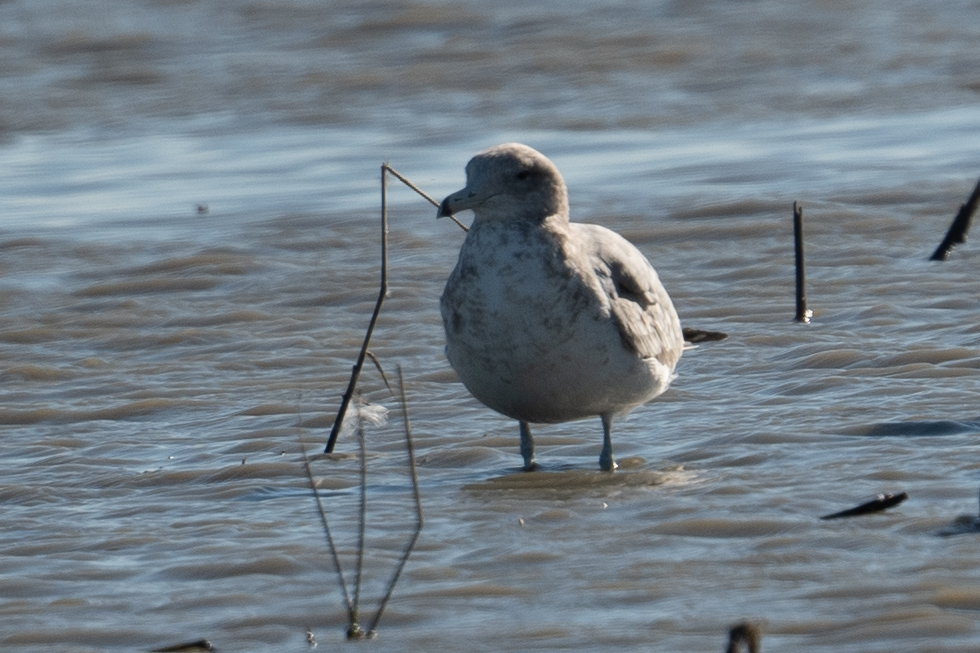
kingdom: Animalia
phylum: Chordata
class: Aves
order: Charadriiformes
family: Laridae
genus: Larus
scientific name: Larus californicus
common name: California gull
